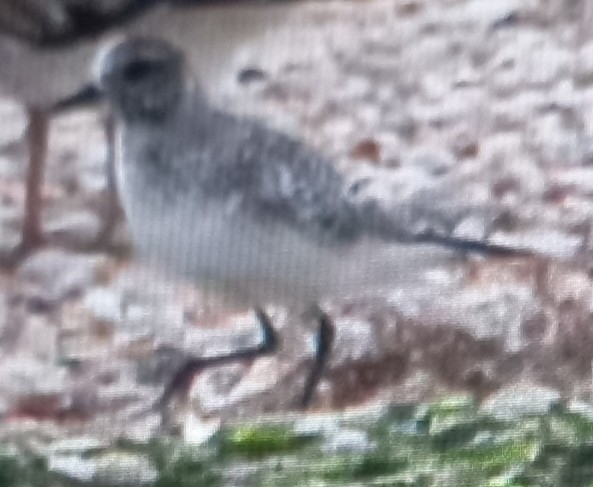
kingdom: Animalia
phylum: Chordata
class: Aves
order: Charadriiformes
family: Charadriidae
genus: Pluvialis
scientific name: Pluvialis squatarola
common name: Grey plover
